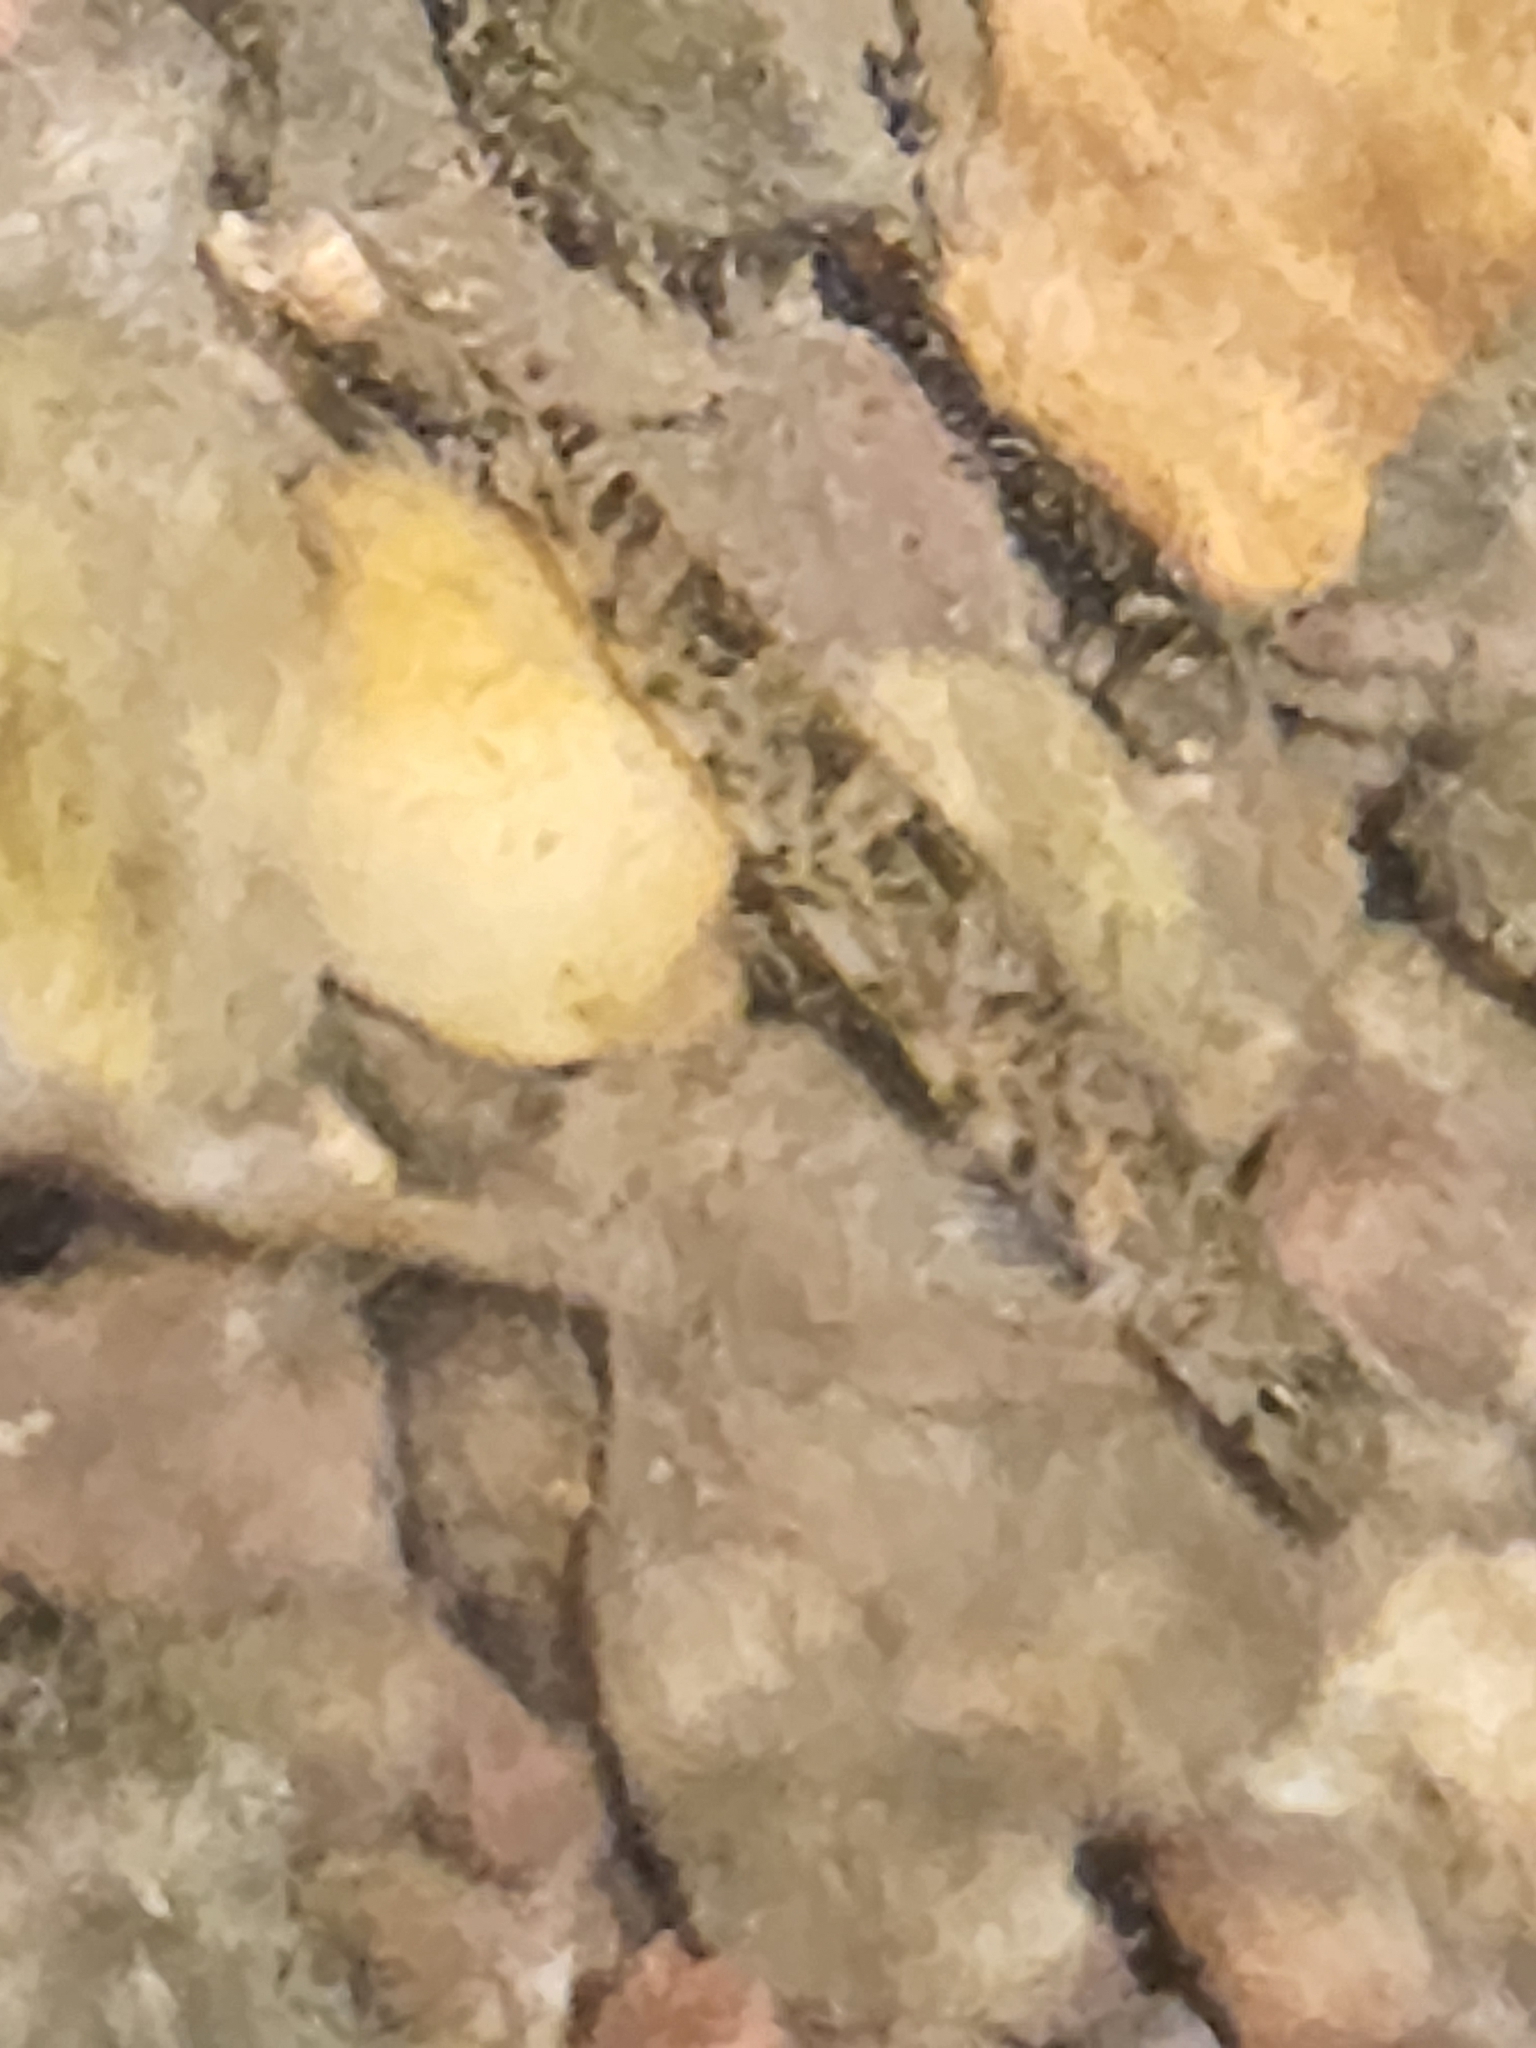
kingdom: Animalia
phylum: Chordata
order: Perciformes
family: Percidae
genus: Etheostoma
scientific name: Etheostoma blennioides
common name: Greenside darter
